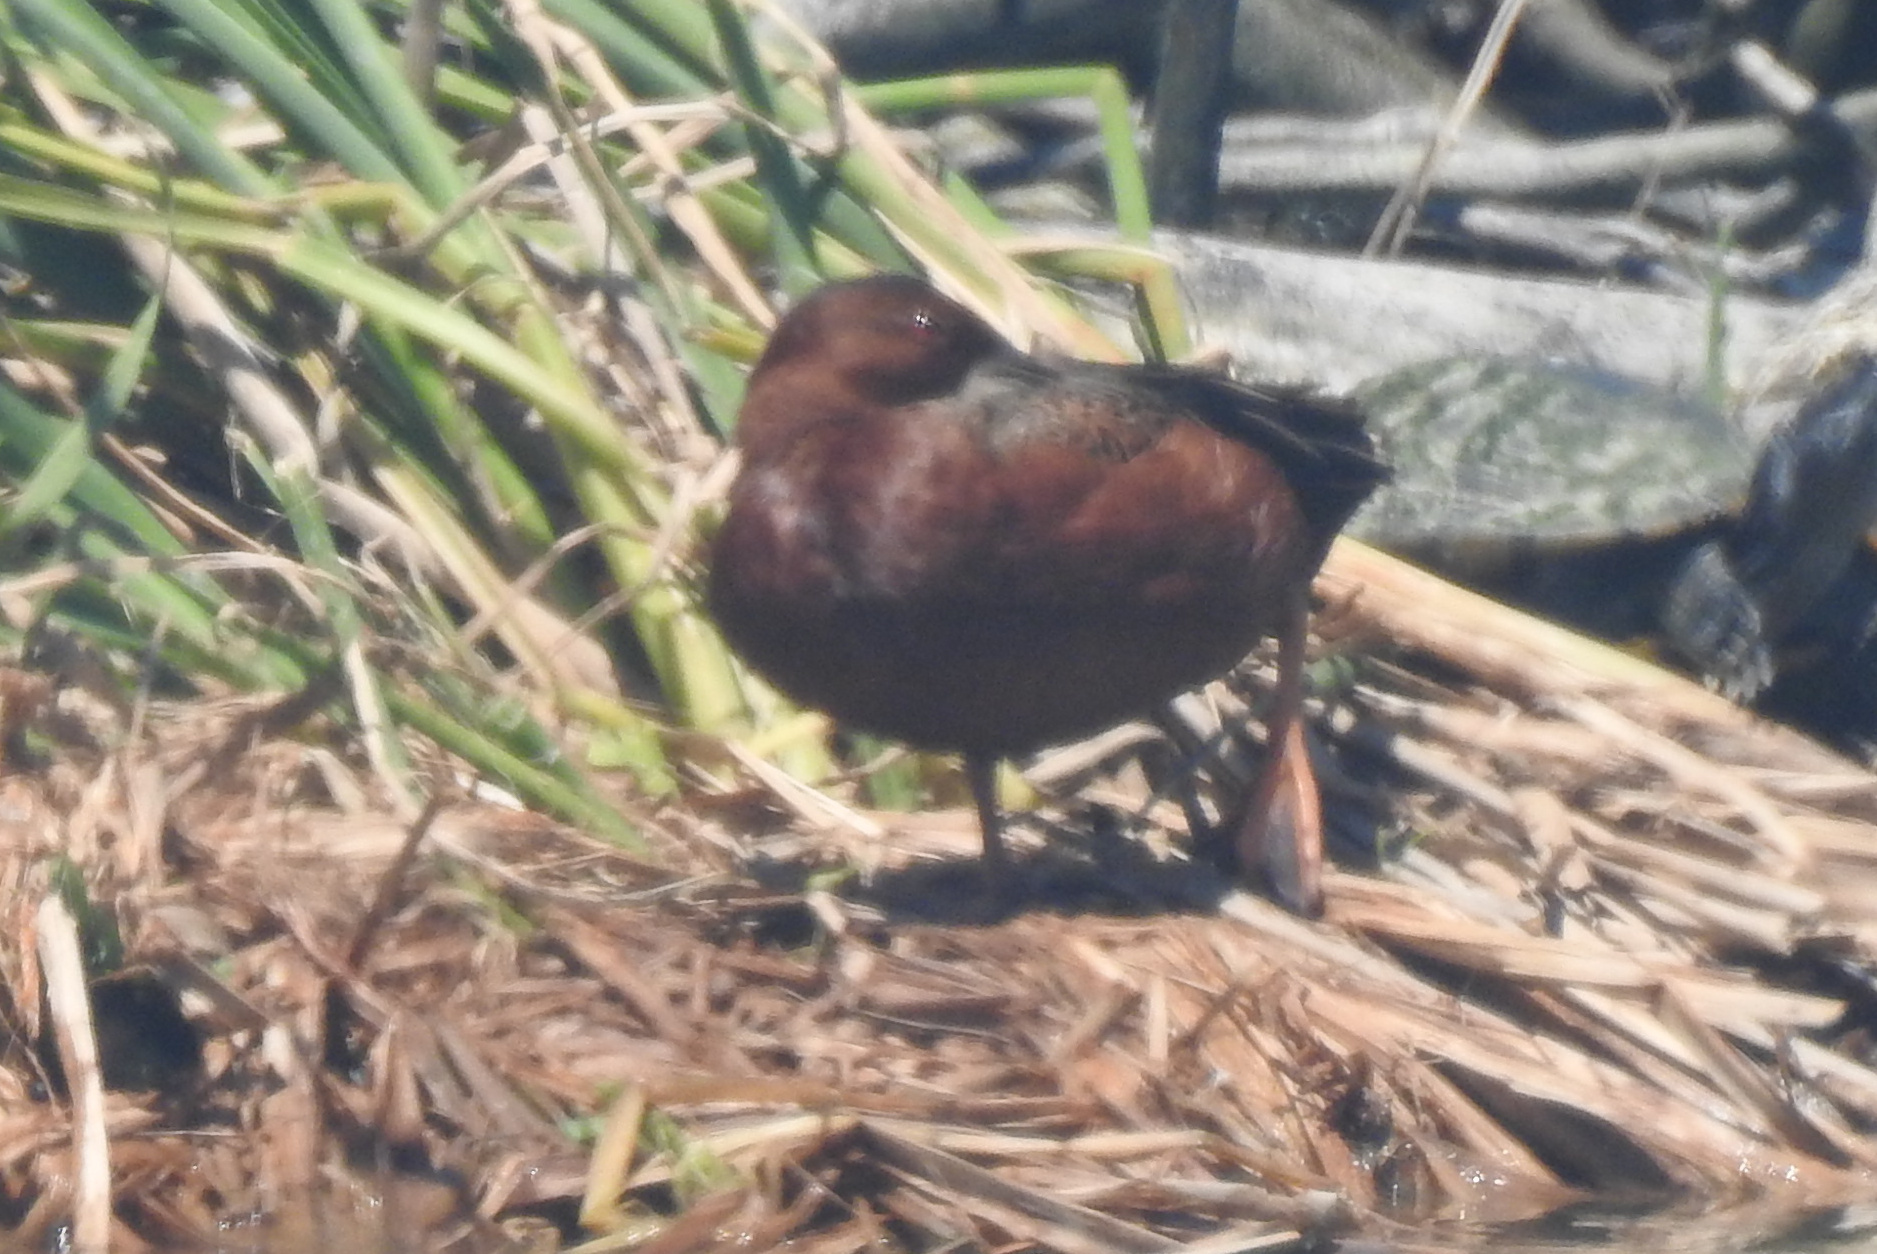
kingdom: Animalia
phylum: Chordata
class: Aves
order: Anseriformes
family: Anatidae
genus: Spatula
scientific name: Spatula cyanoptera
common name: Cinnamon teal
